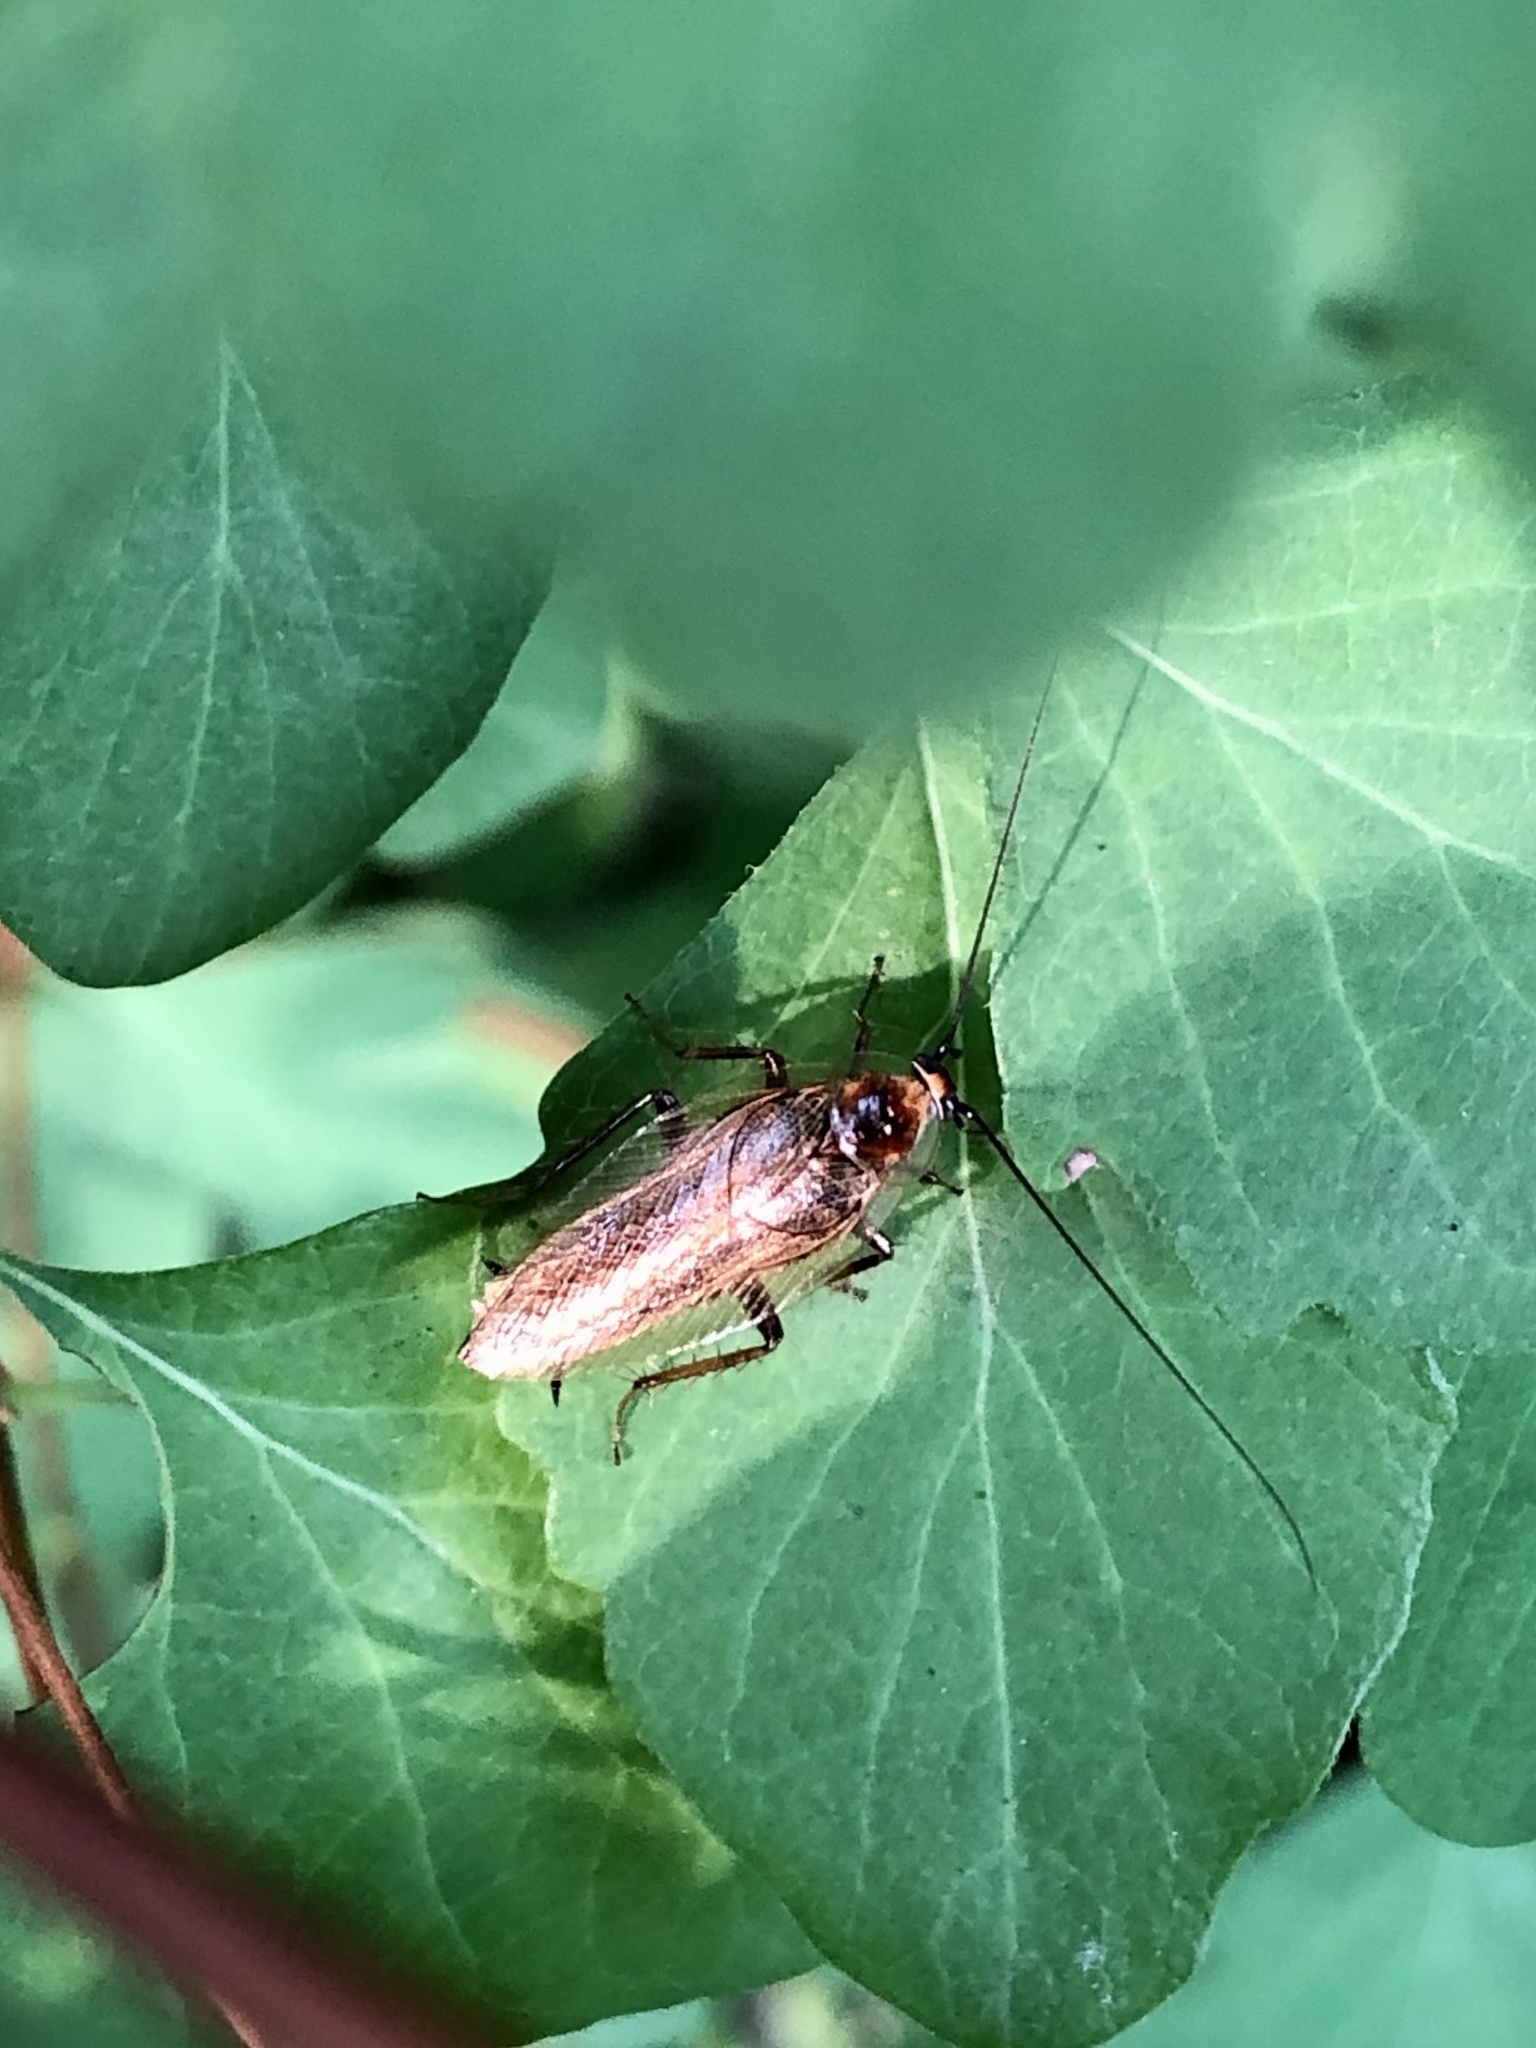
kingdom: Animalia
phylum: Arthropoda
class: Insecta
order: Blattodea
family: Ectobiidae
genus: Ectobius
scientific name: Ectobius lucidus
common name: Wood cockroach
